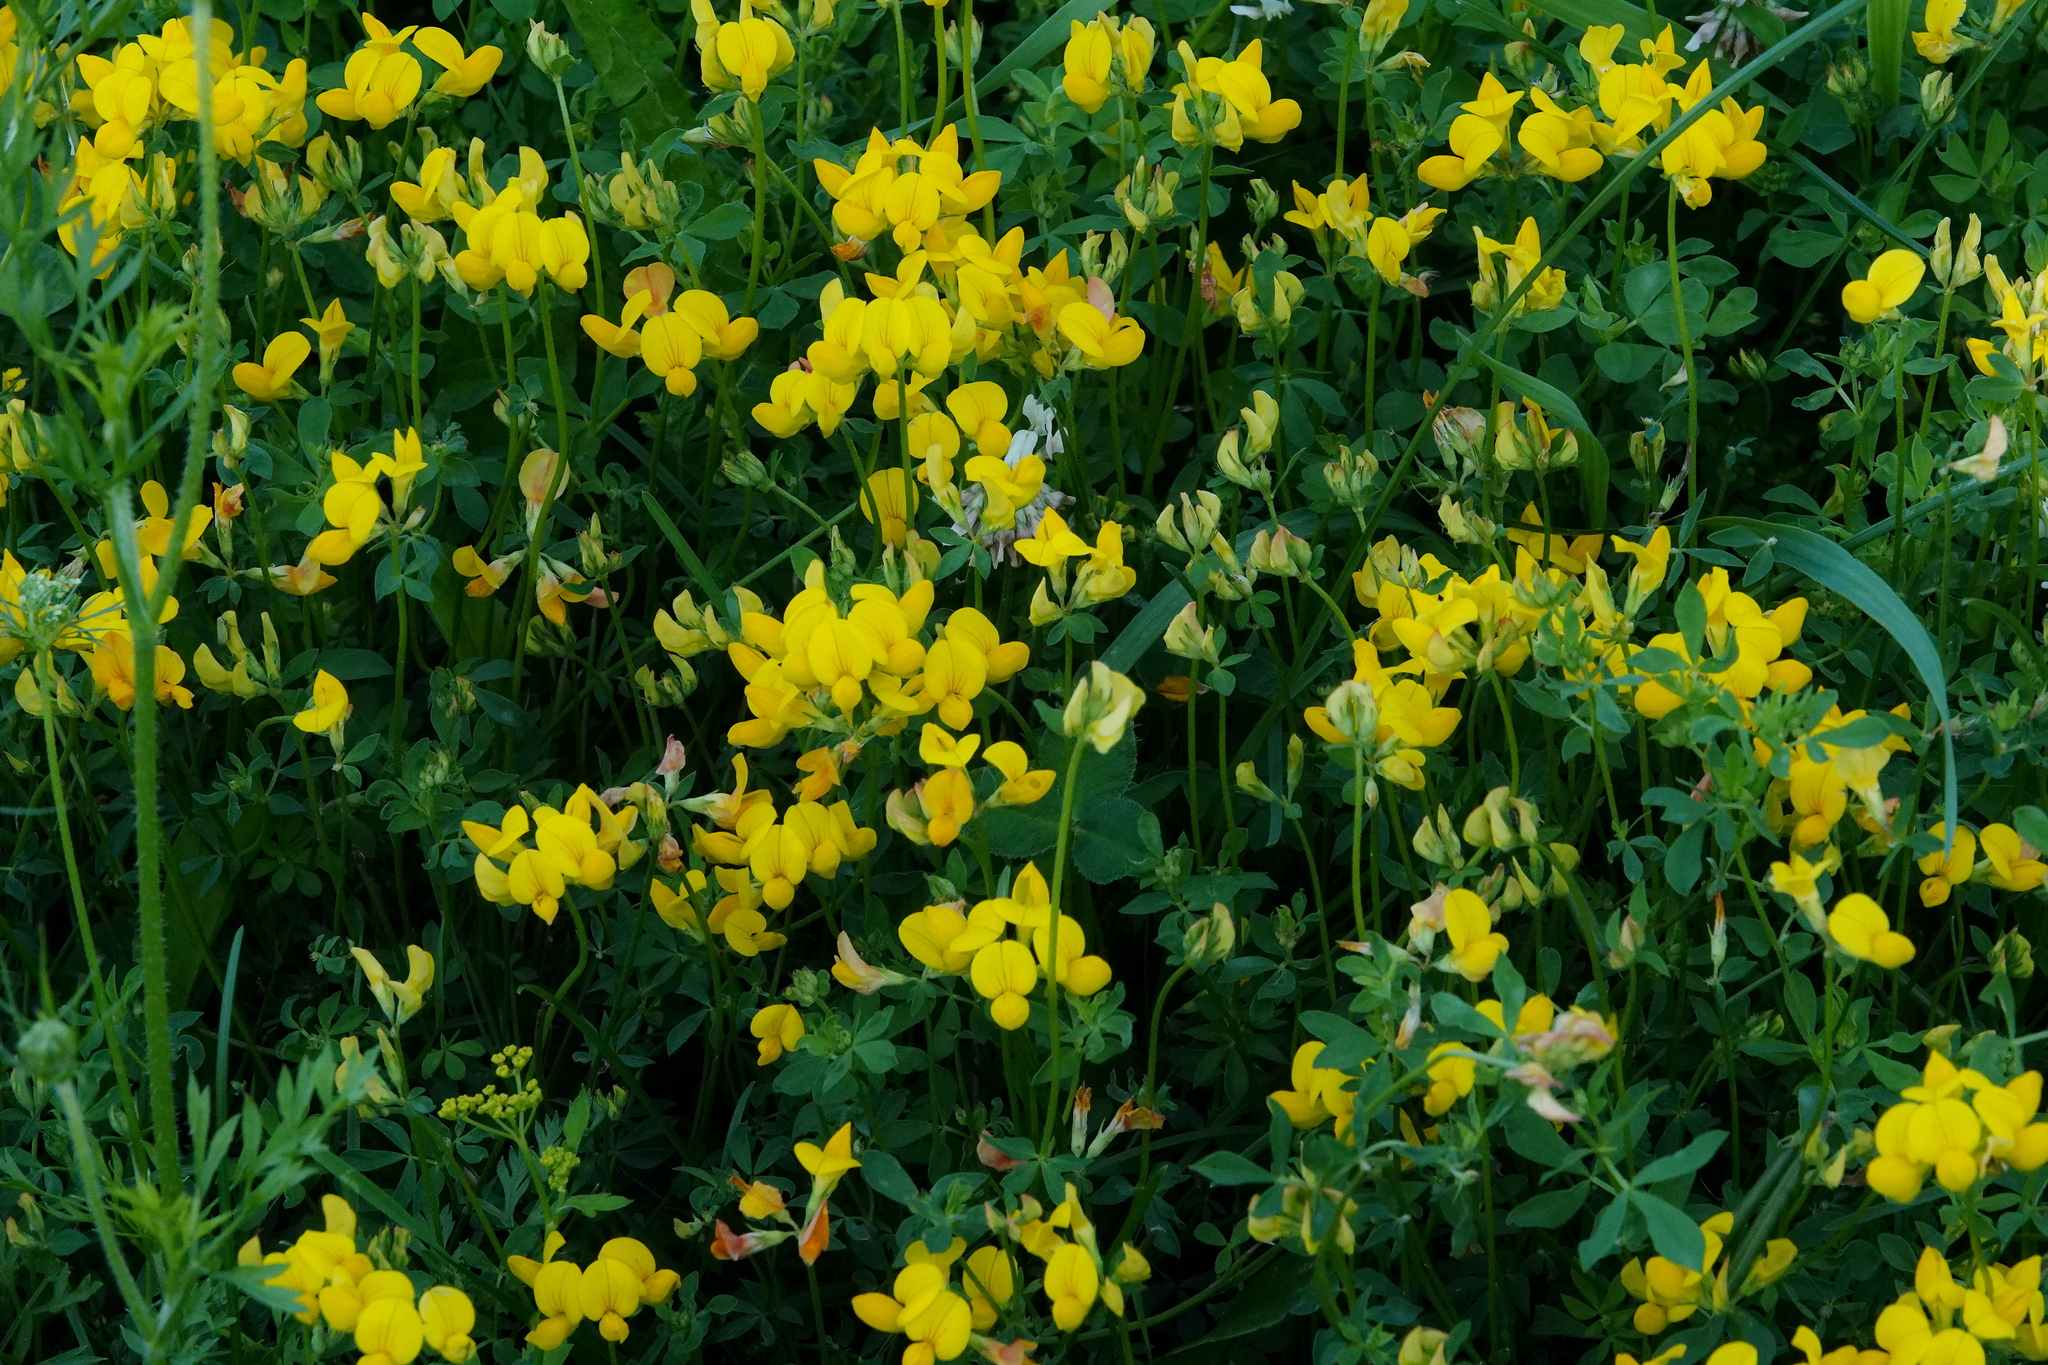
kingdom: Plantae
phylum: Tracheophyta
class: Magnoliopsida
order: Fabales
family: Fabaceae
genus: Lotus
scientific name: Lotus corniculatus
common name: Common bird's-foot-trefoil
